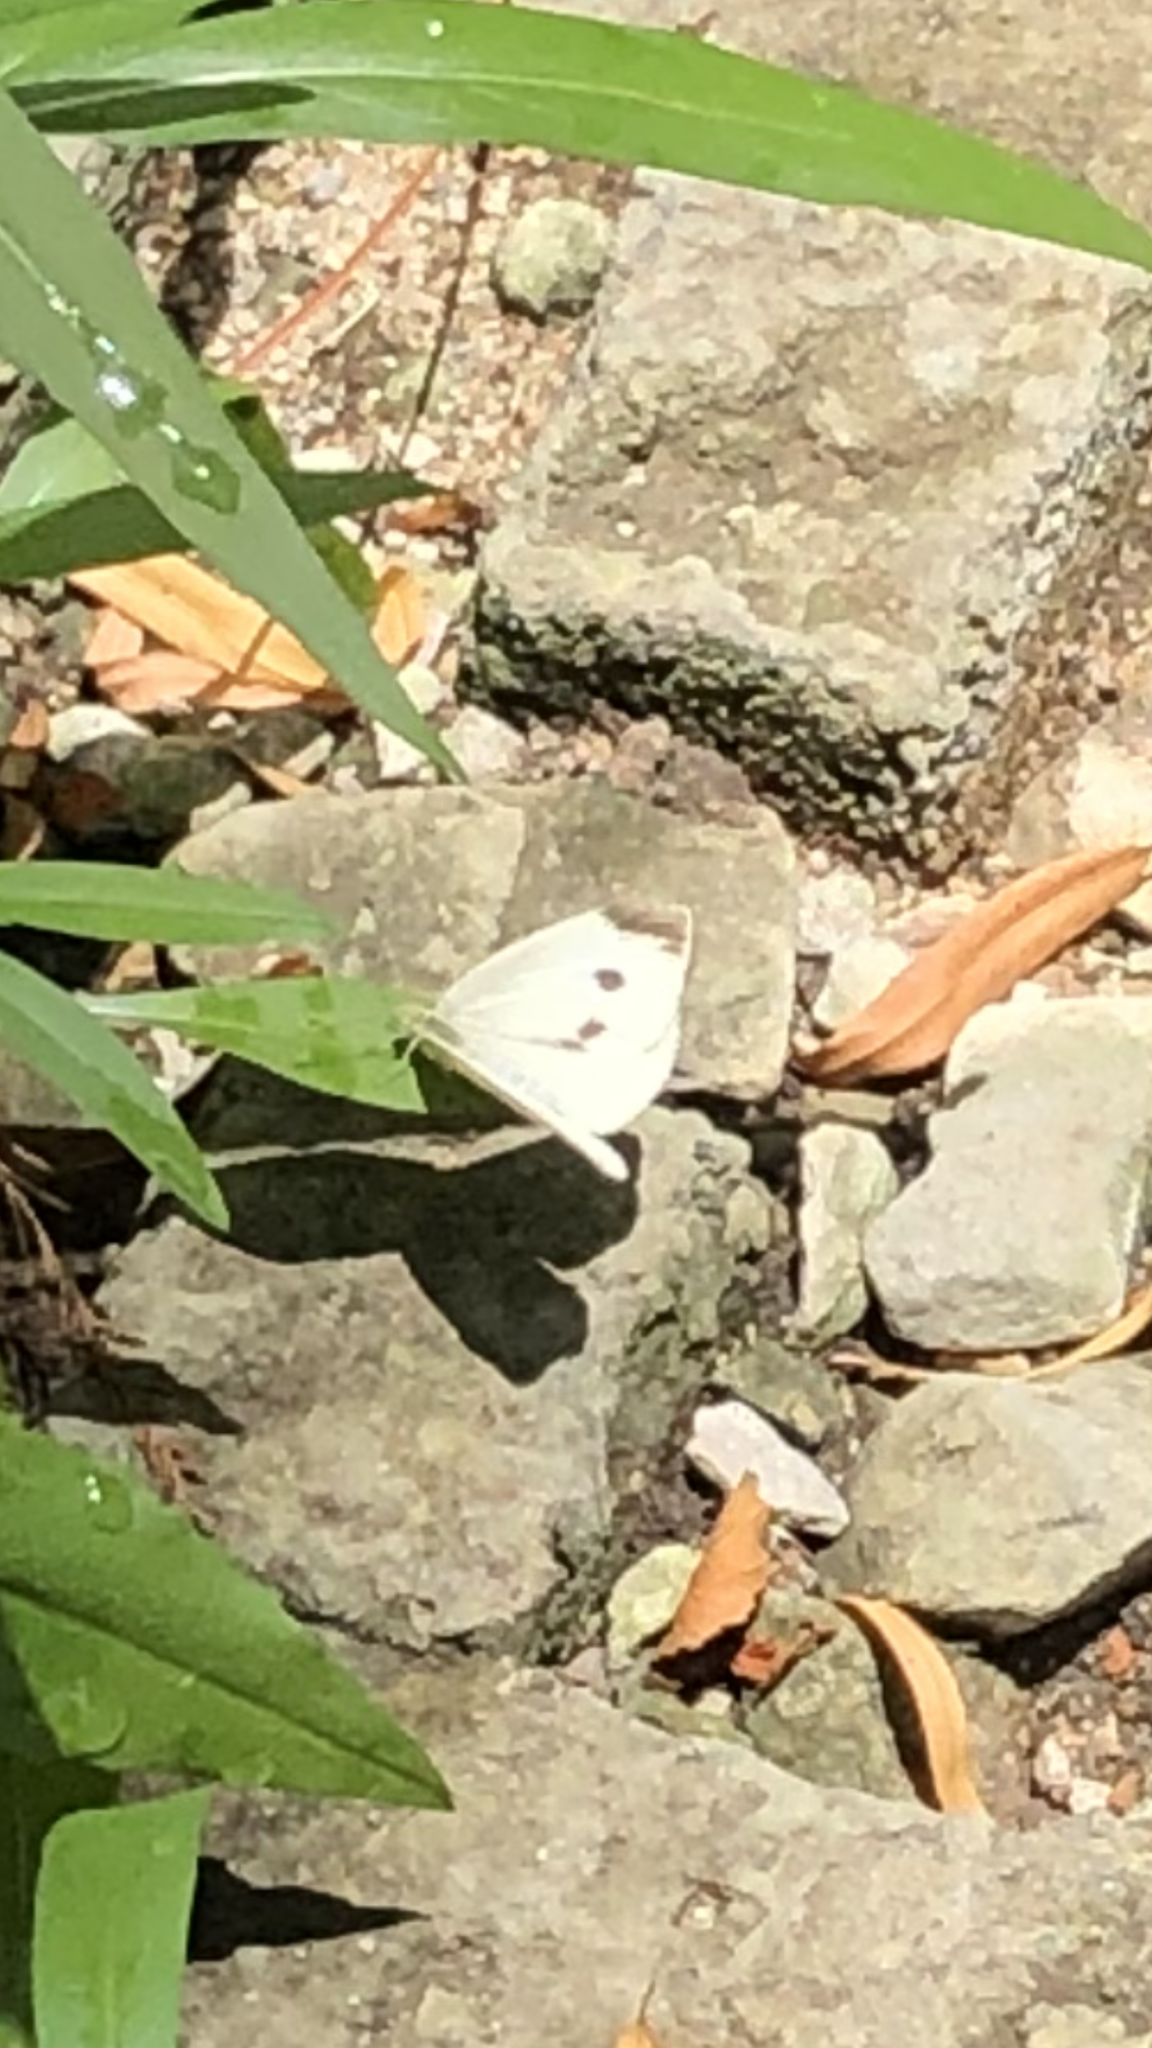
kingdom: Animalia
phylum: Arthropoda
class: Insecta
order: Lepidoptera
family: Pieridae
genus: Pieris
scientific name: Pieris rapae
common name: Small white
